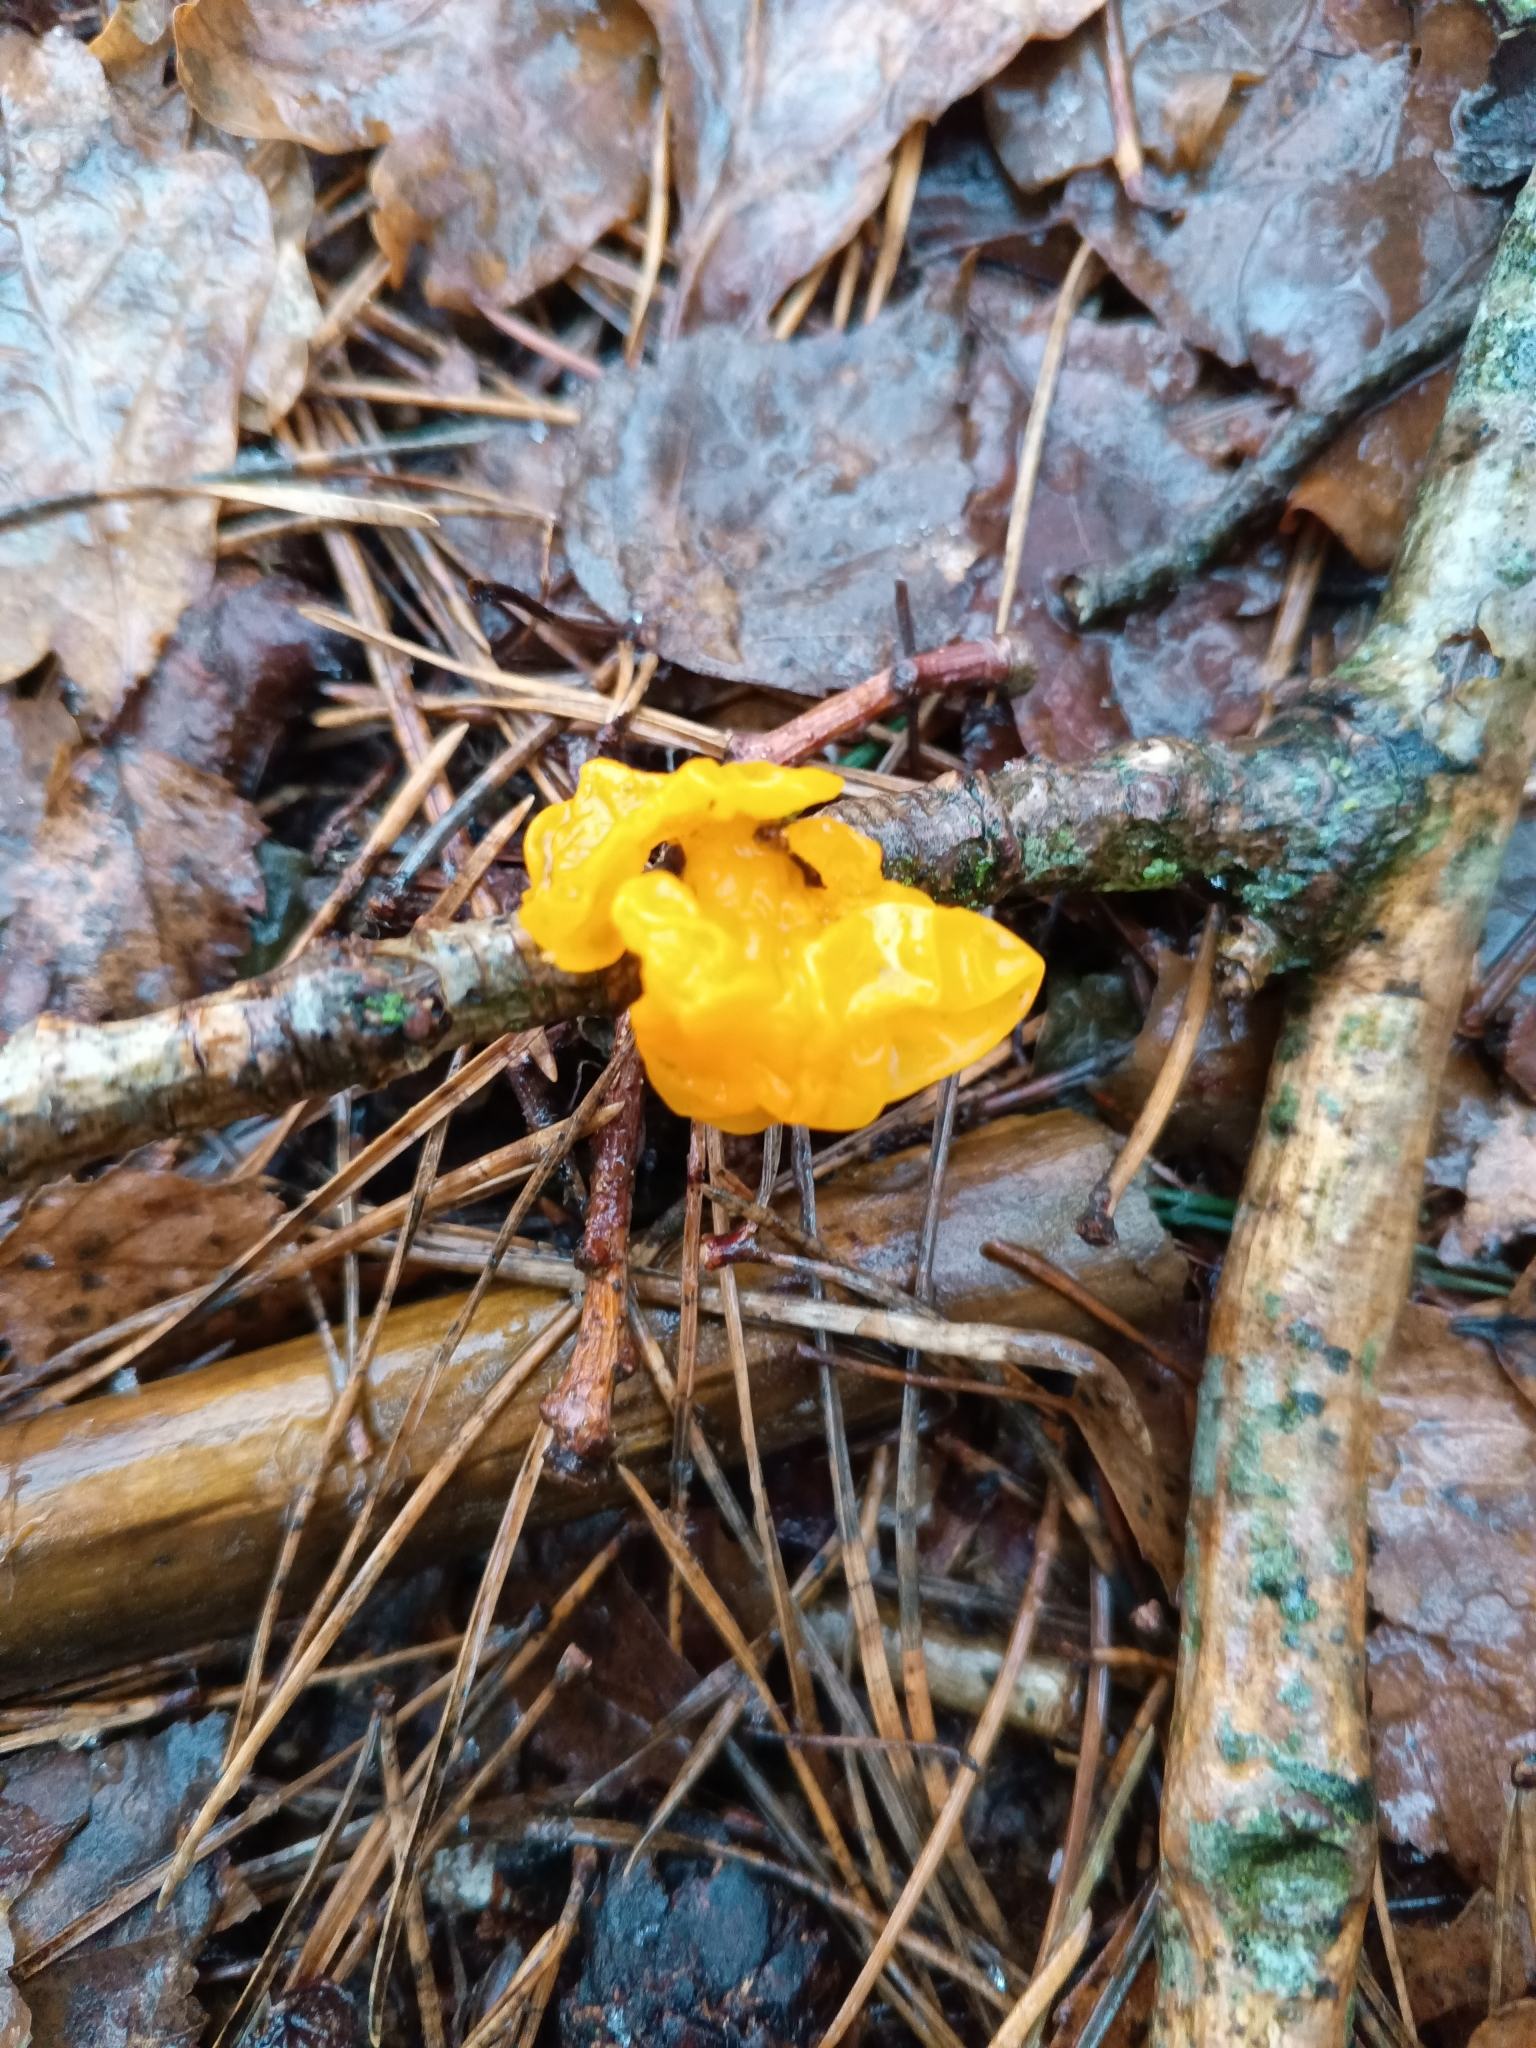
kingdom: Fungi
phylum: Basidiomycota
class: Tremellomycetes
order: Tremellales
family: Tremellaceae
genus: Tremella
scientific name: Tremella mesenterica
